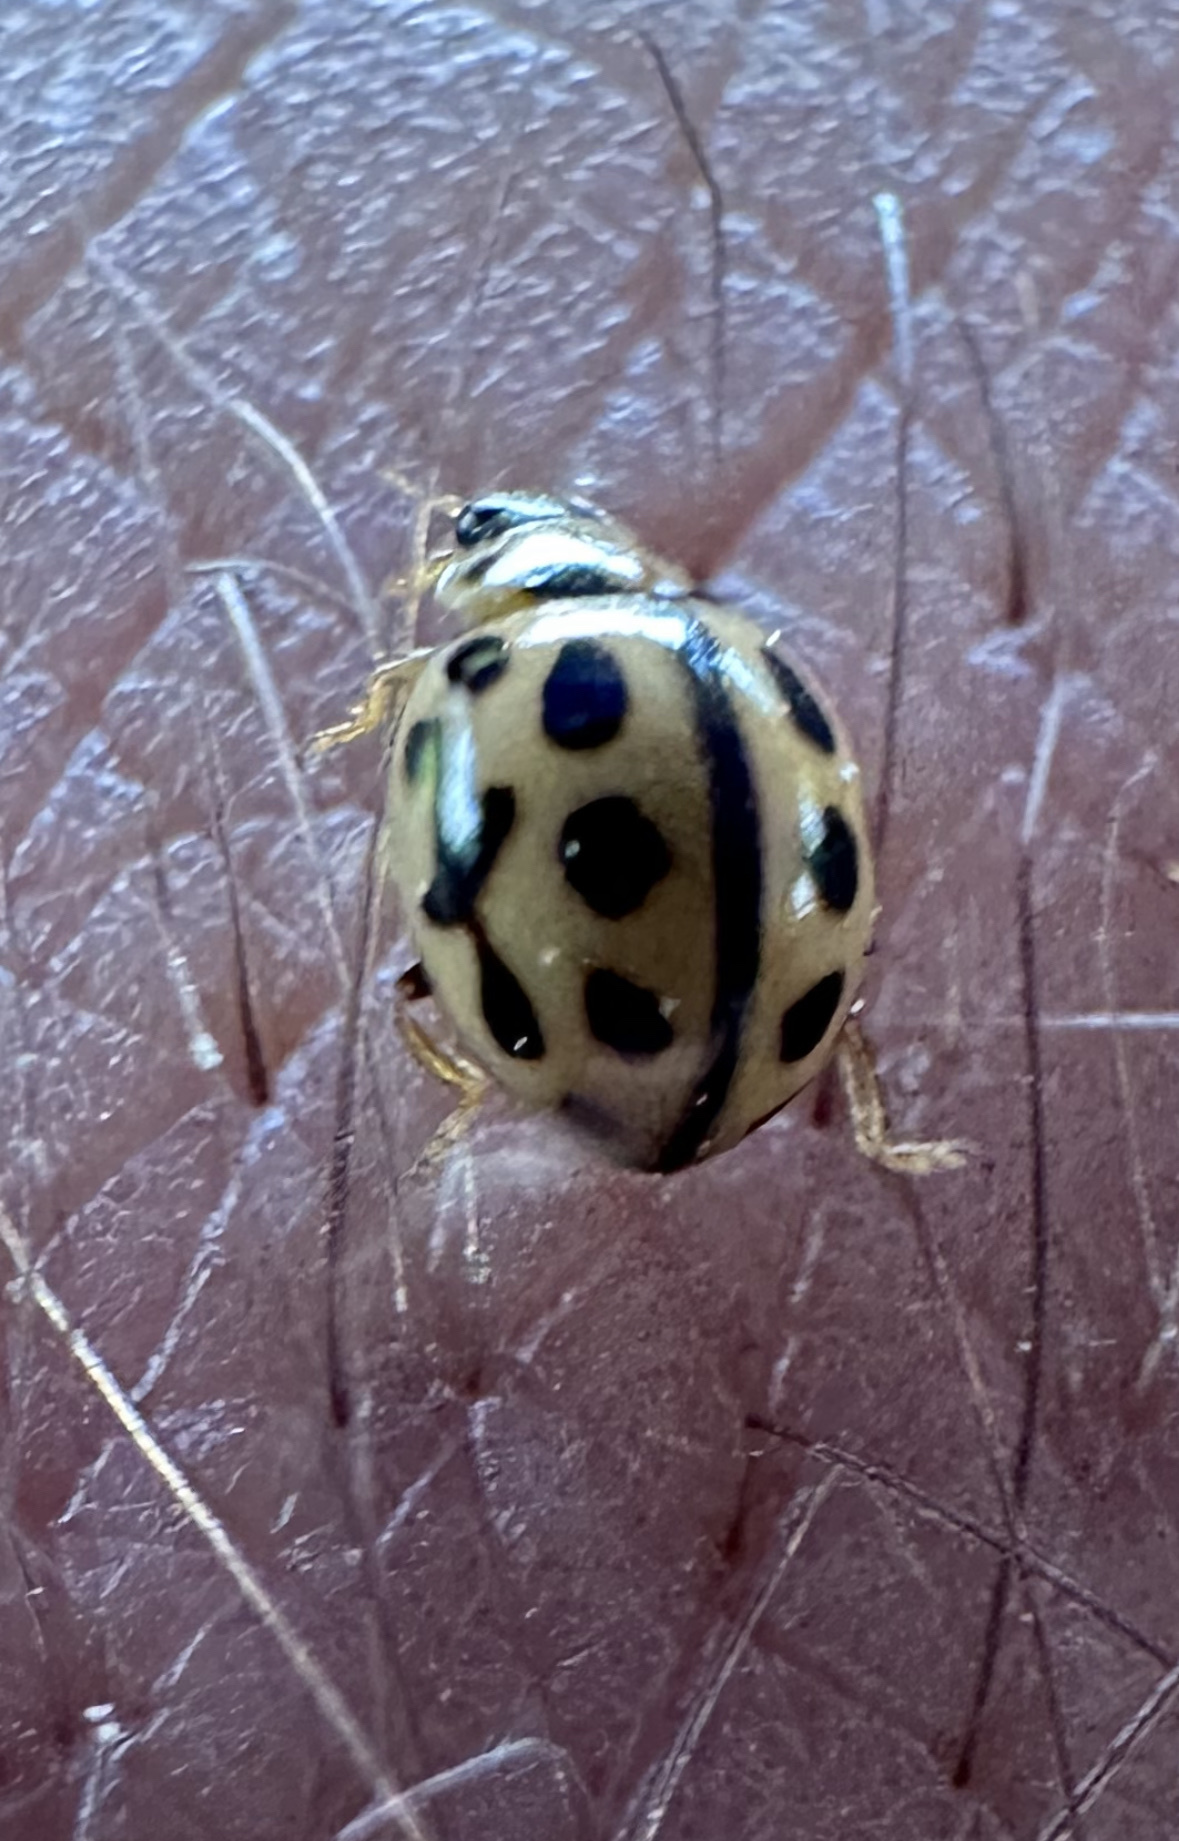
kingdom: Animalia
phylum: Arthropoda
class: Insecta
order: Coleoptera
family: Coccinellidae
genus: Tytthaspis
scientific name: Tytthaspis sedecimpunctata
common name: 16-spot ladybird
